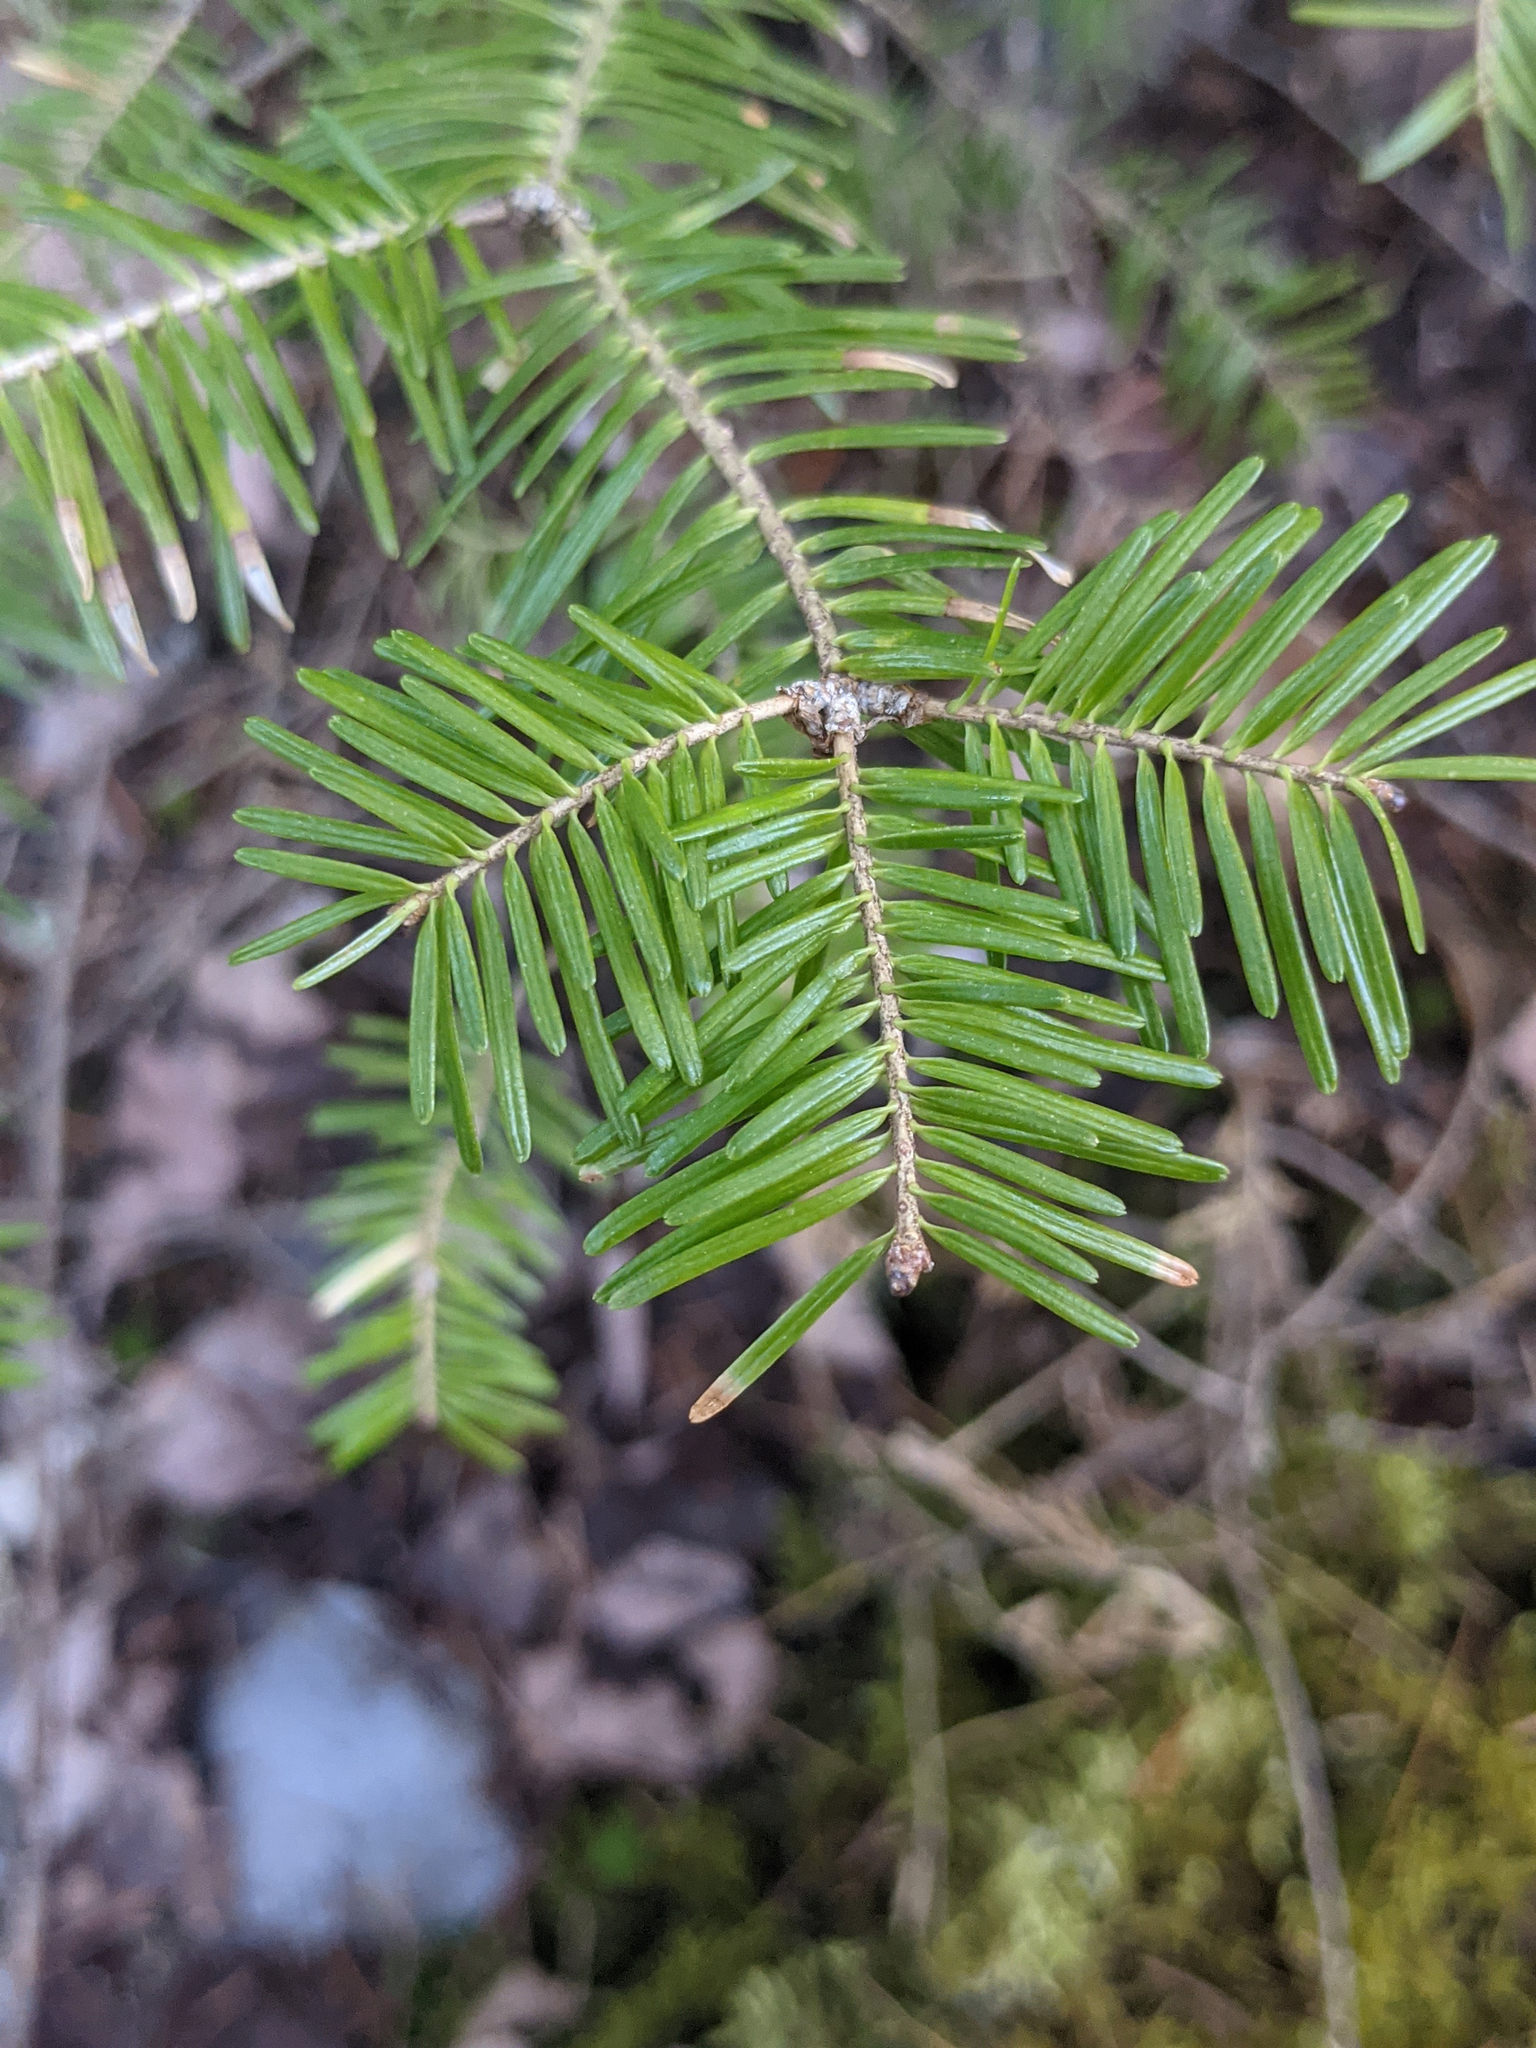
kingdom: Plantae
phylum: Tracheophyta
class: Pinopsida
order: Pinales
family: Pinaceae
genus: Abies
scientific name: Abies balsamea
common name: Balsam fir
